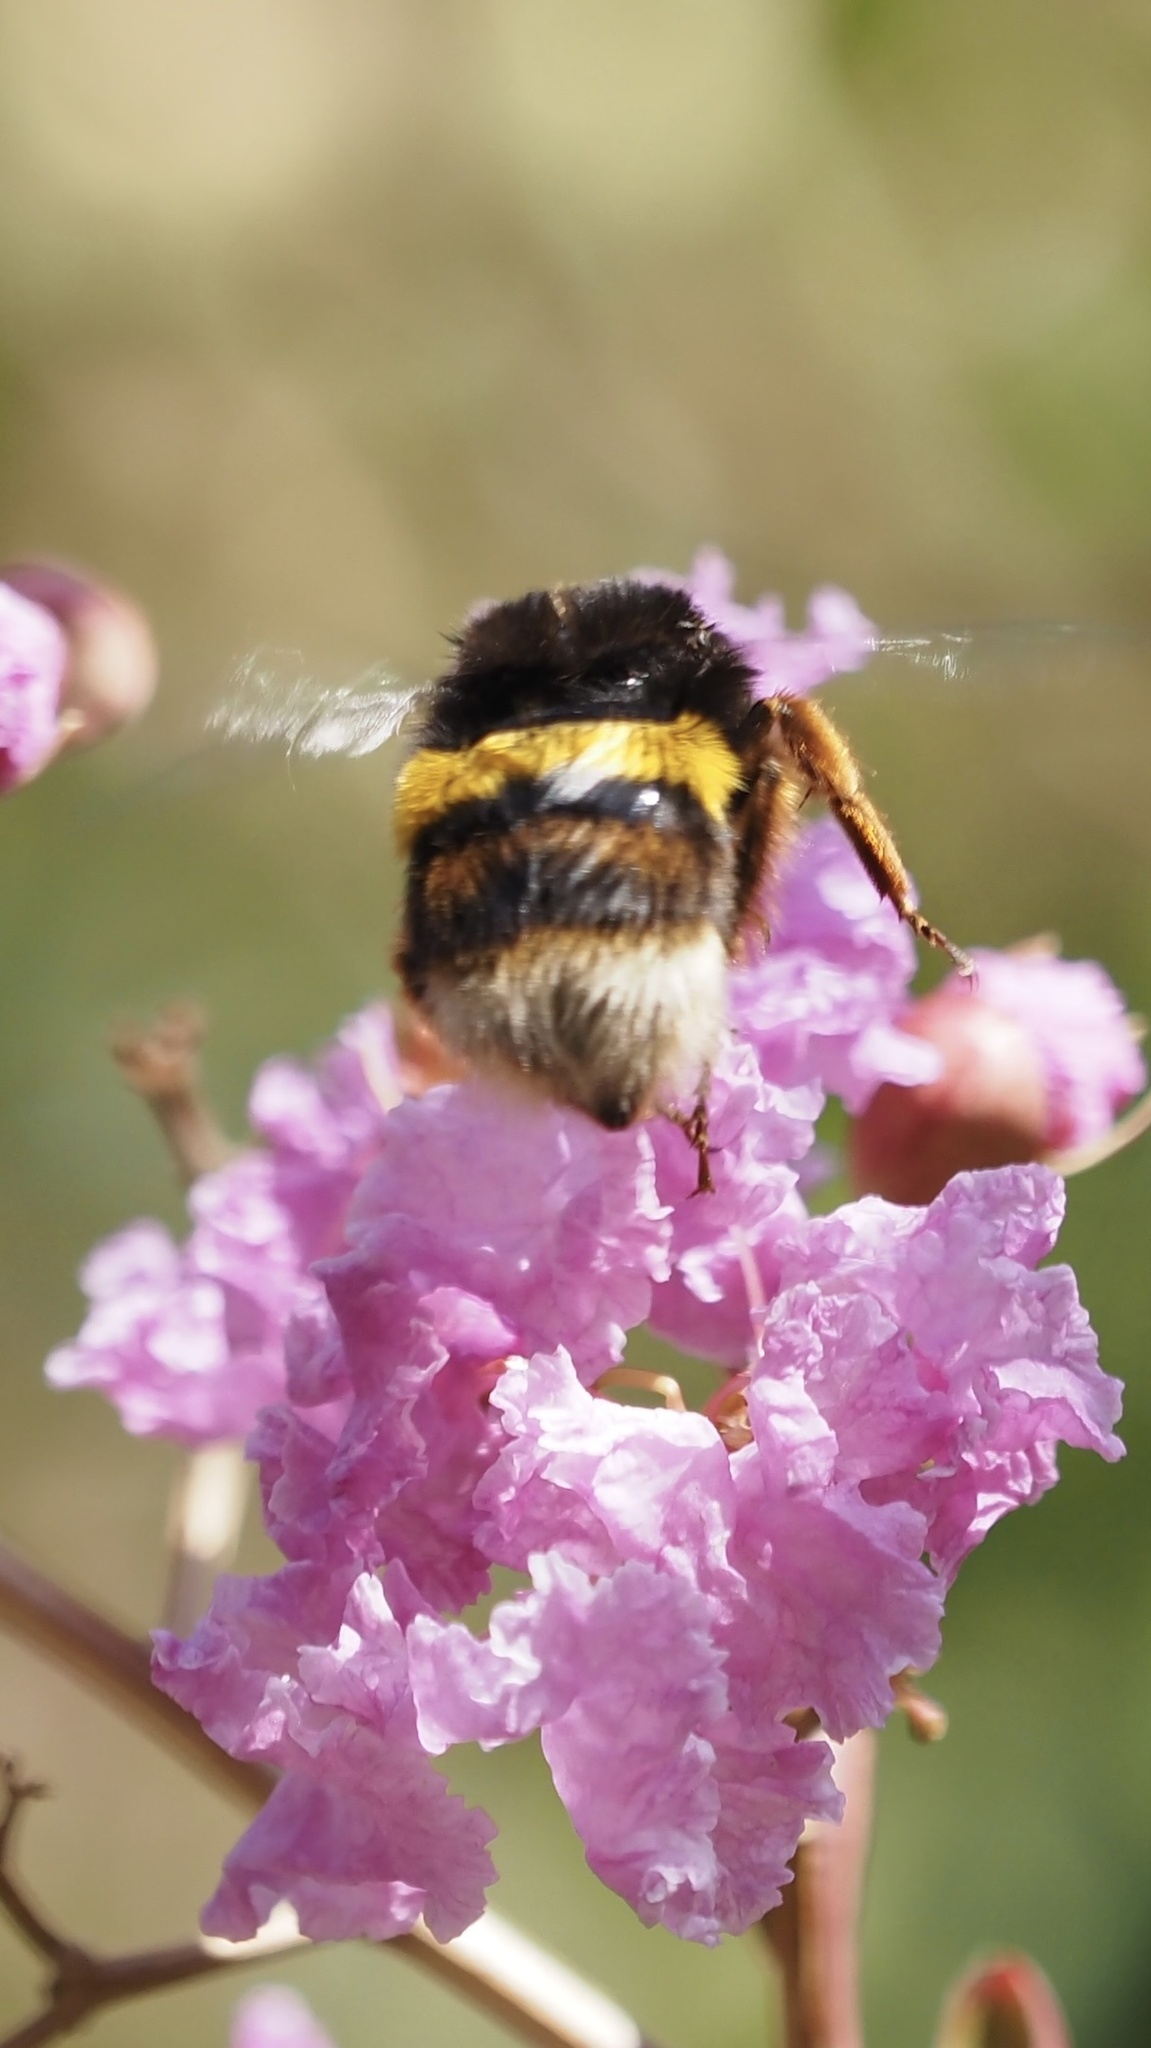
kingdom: Animalia
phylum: Arthropoda
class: Insecta
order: Hymenoptera
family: Apidae
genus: Bombus
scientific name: Bombus terrestris
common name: Buff-tailed bumblebee
